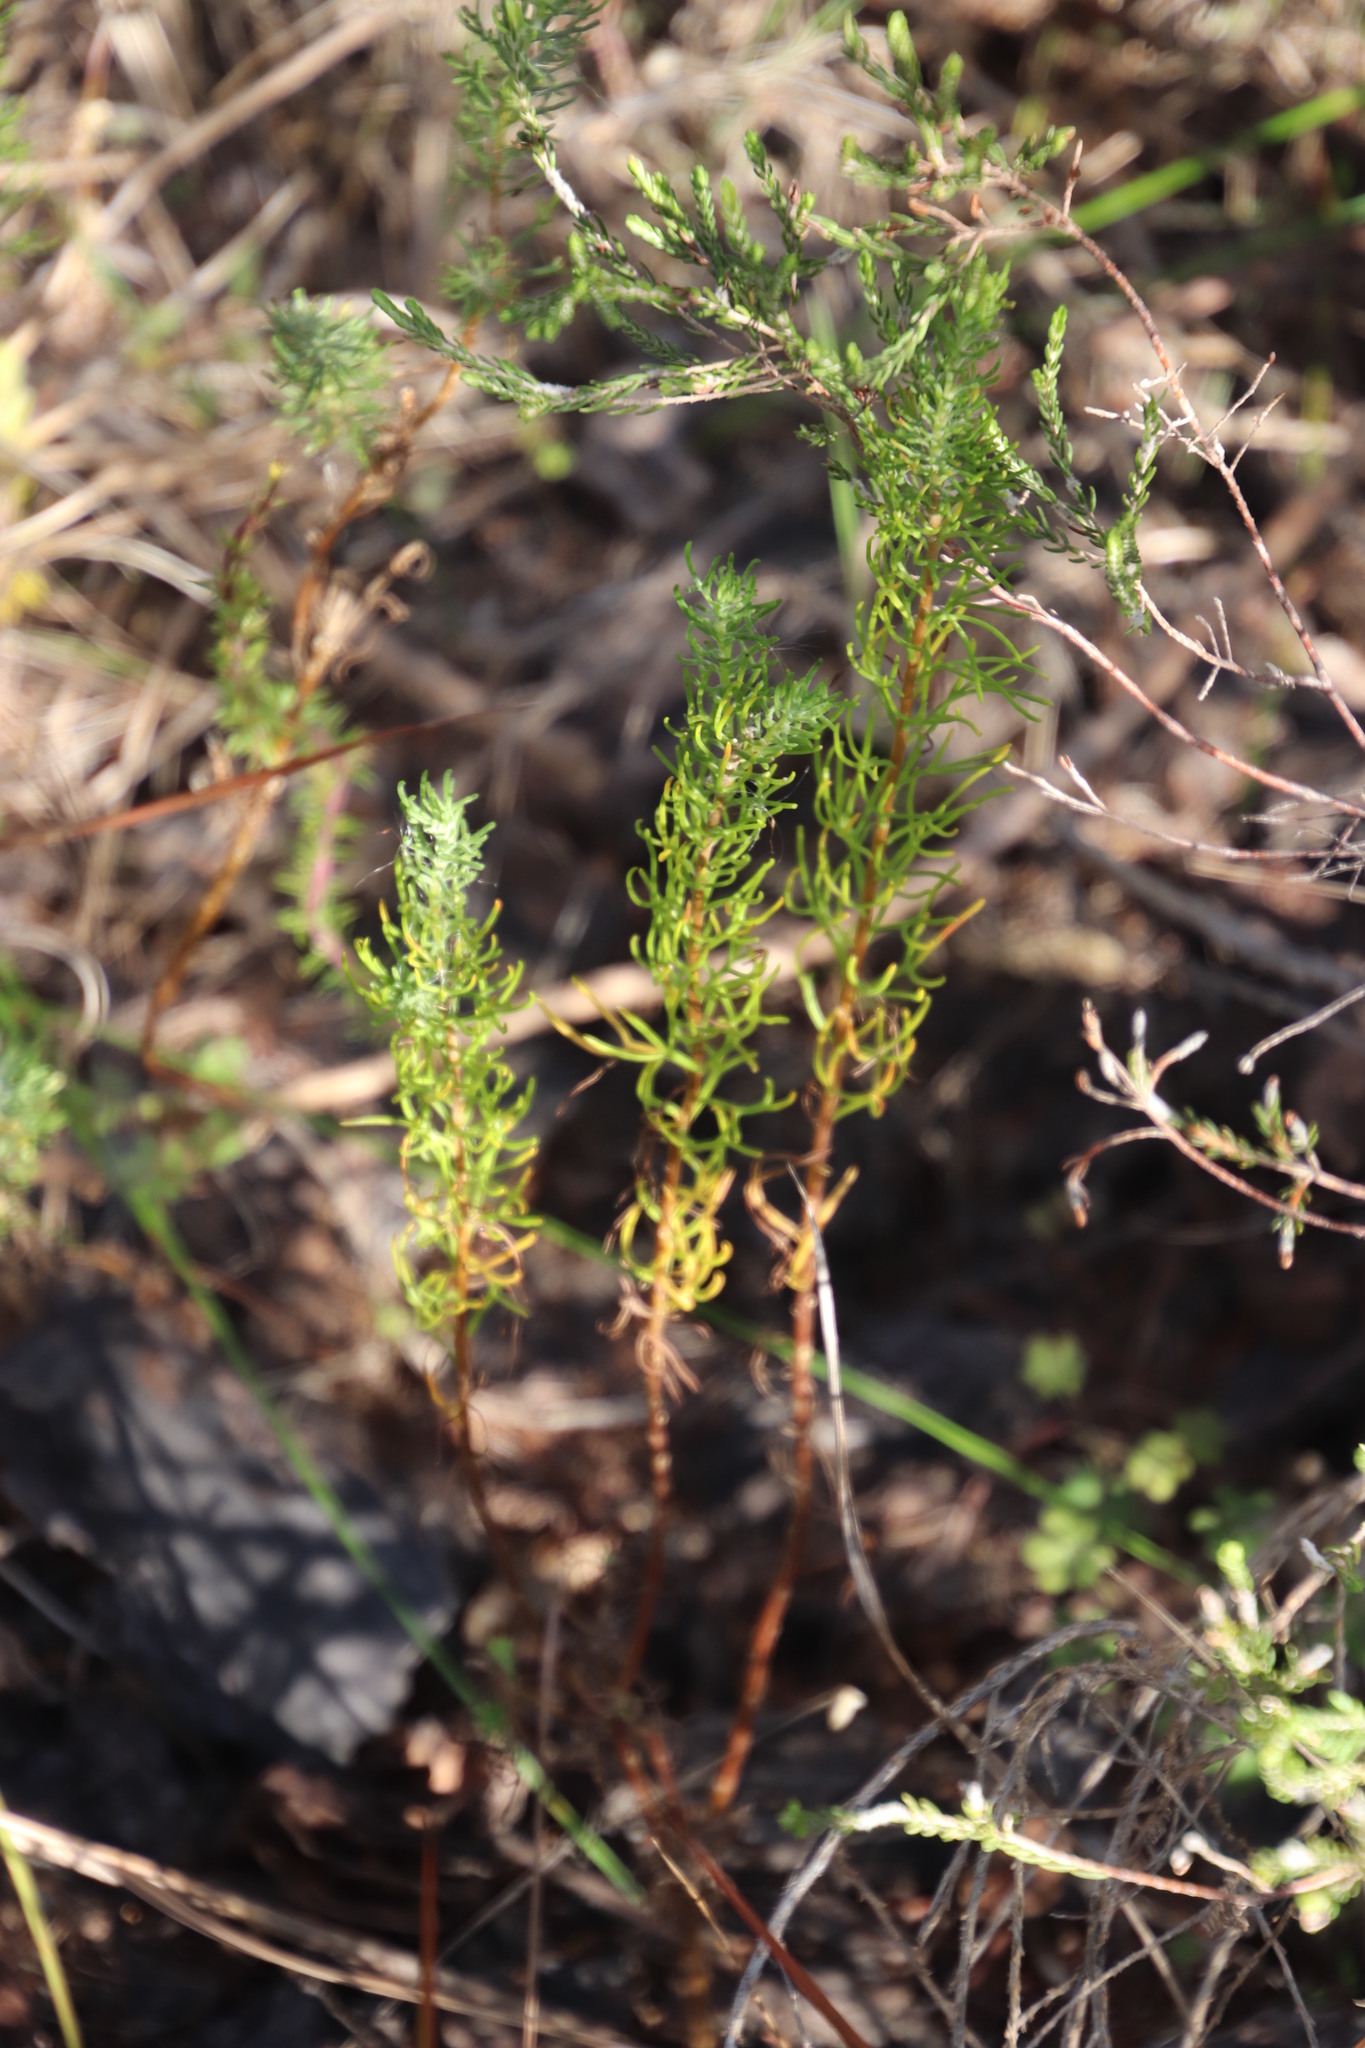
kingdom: Plantae
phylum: Tracheophyta
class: Magnoliopsida
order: Asterales
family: Asteraceae
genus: Athanasia
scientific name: Athanasia crithmifolia
